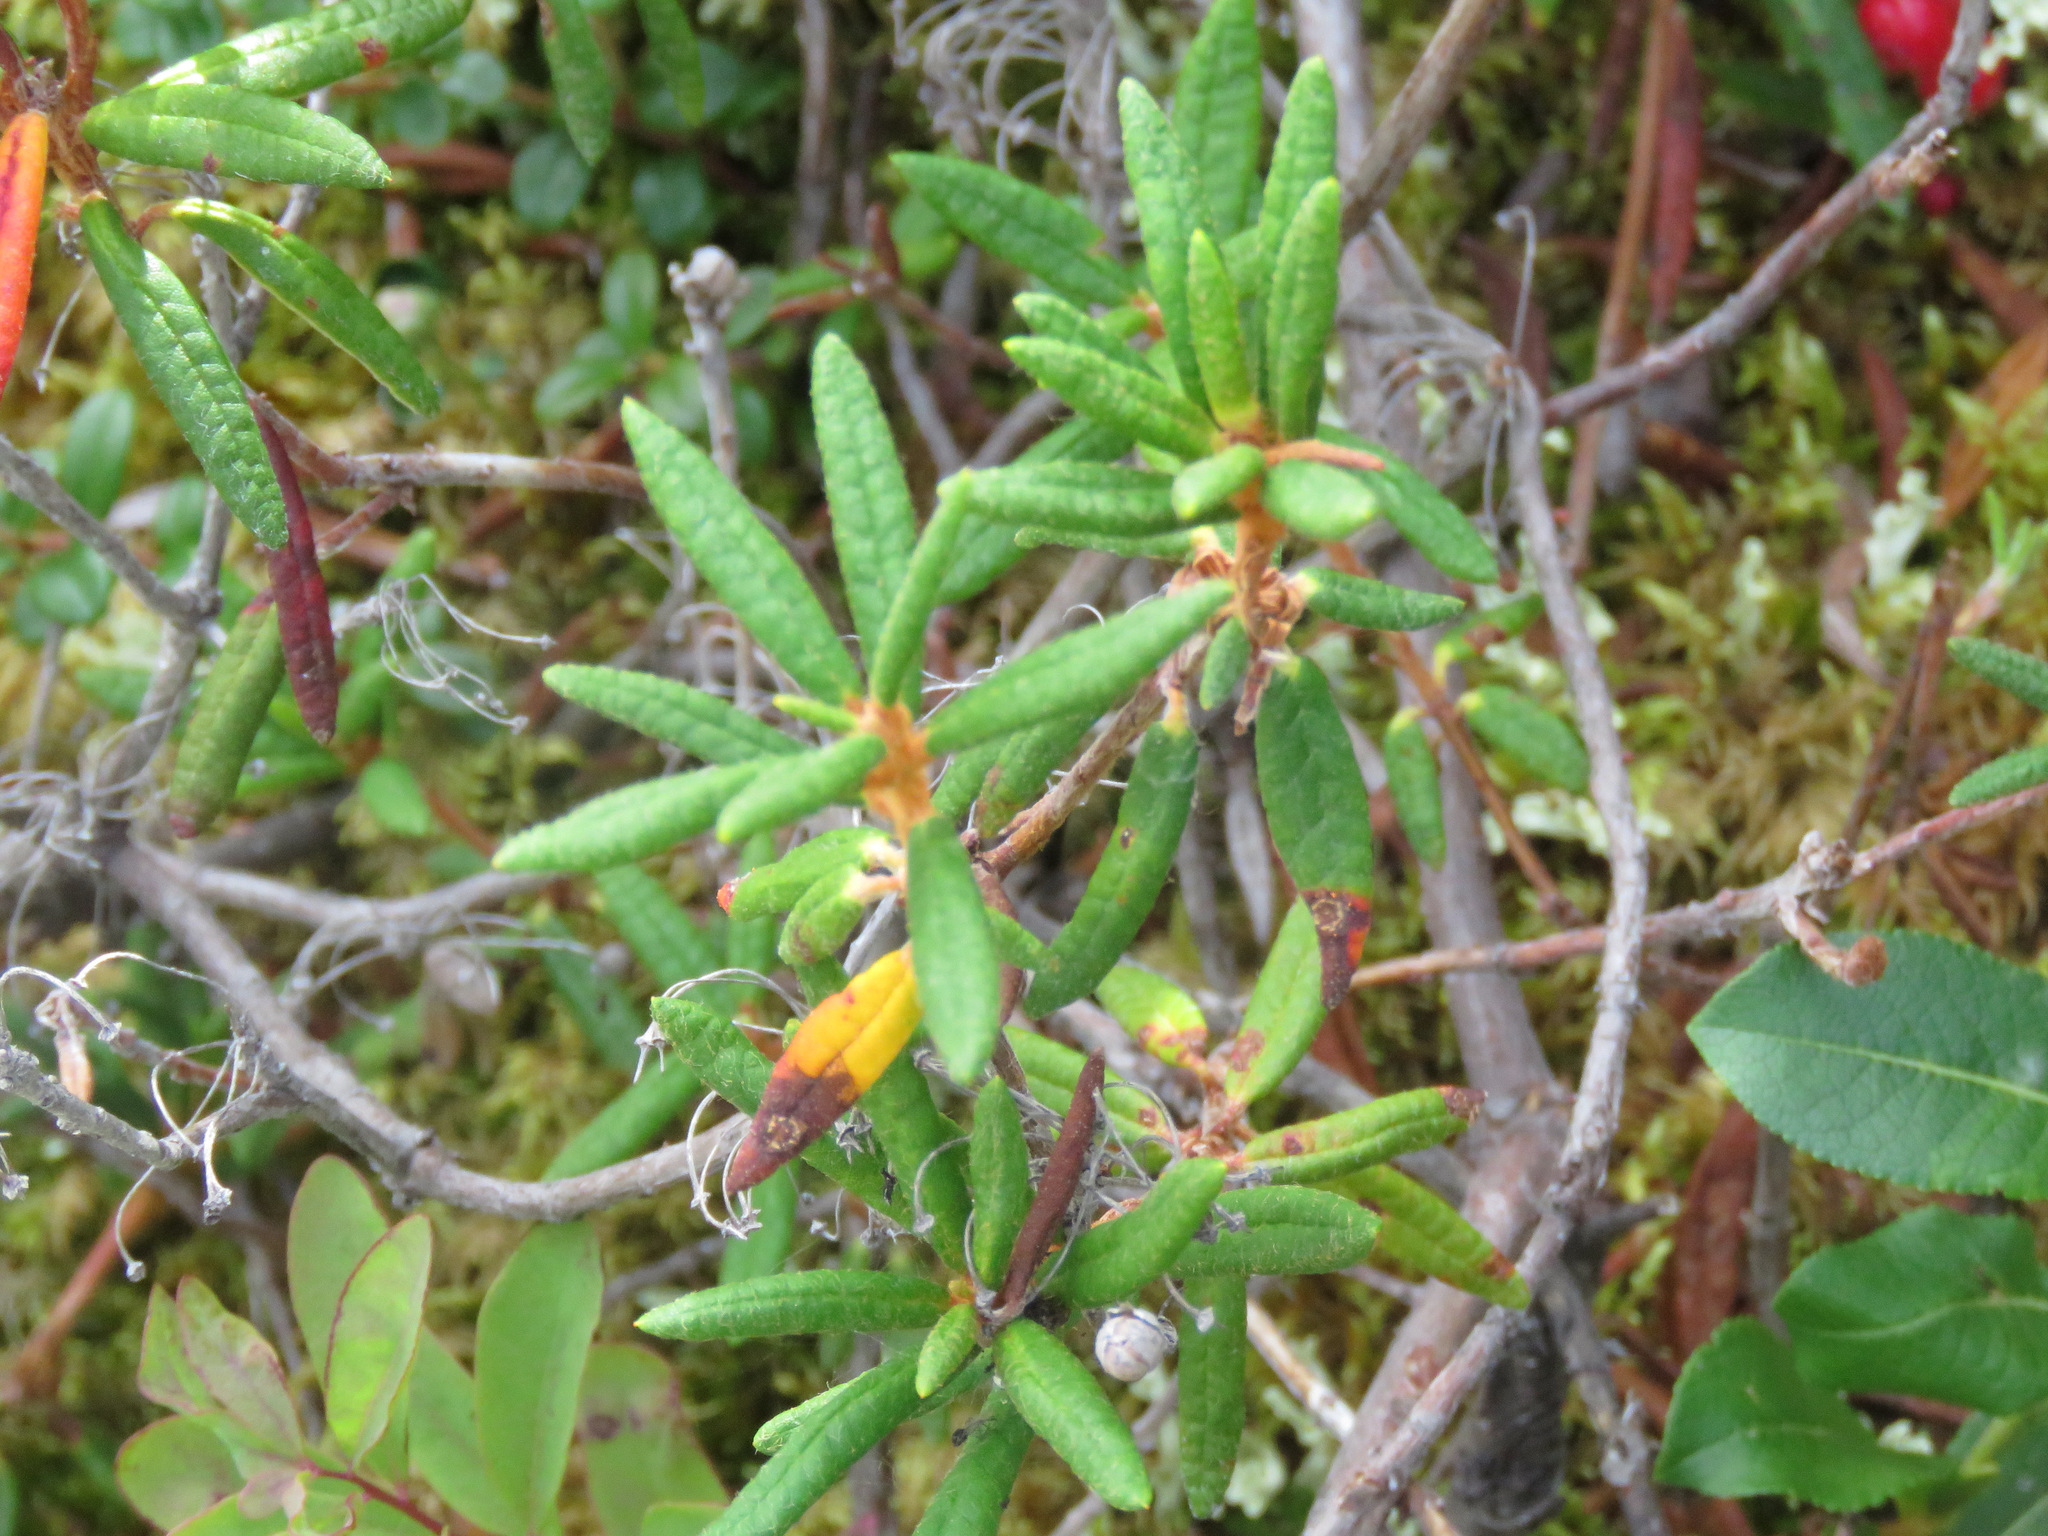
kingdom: Plantae
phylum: Tracheophyta
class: Magnoliopsida
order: Ericales
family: Ericaceae
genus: Rhododendron
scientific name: Rhododendron groenlandicum
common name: Bog labrador tea
